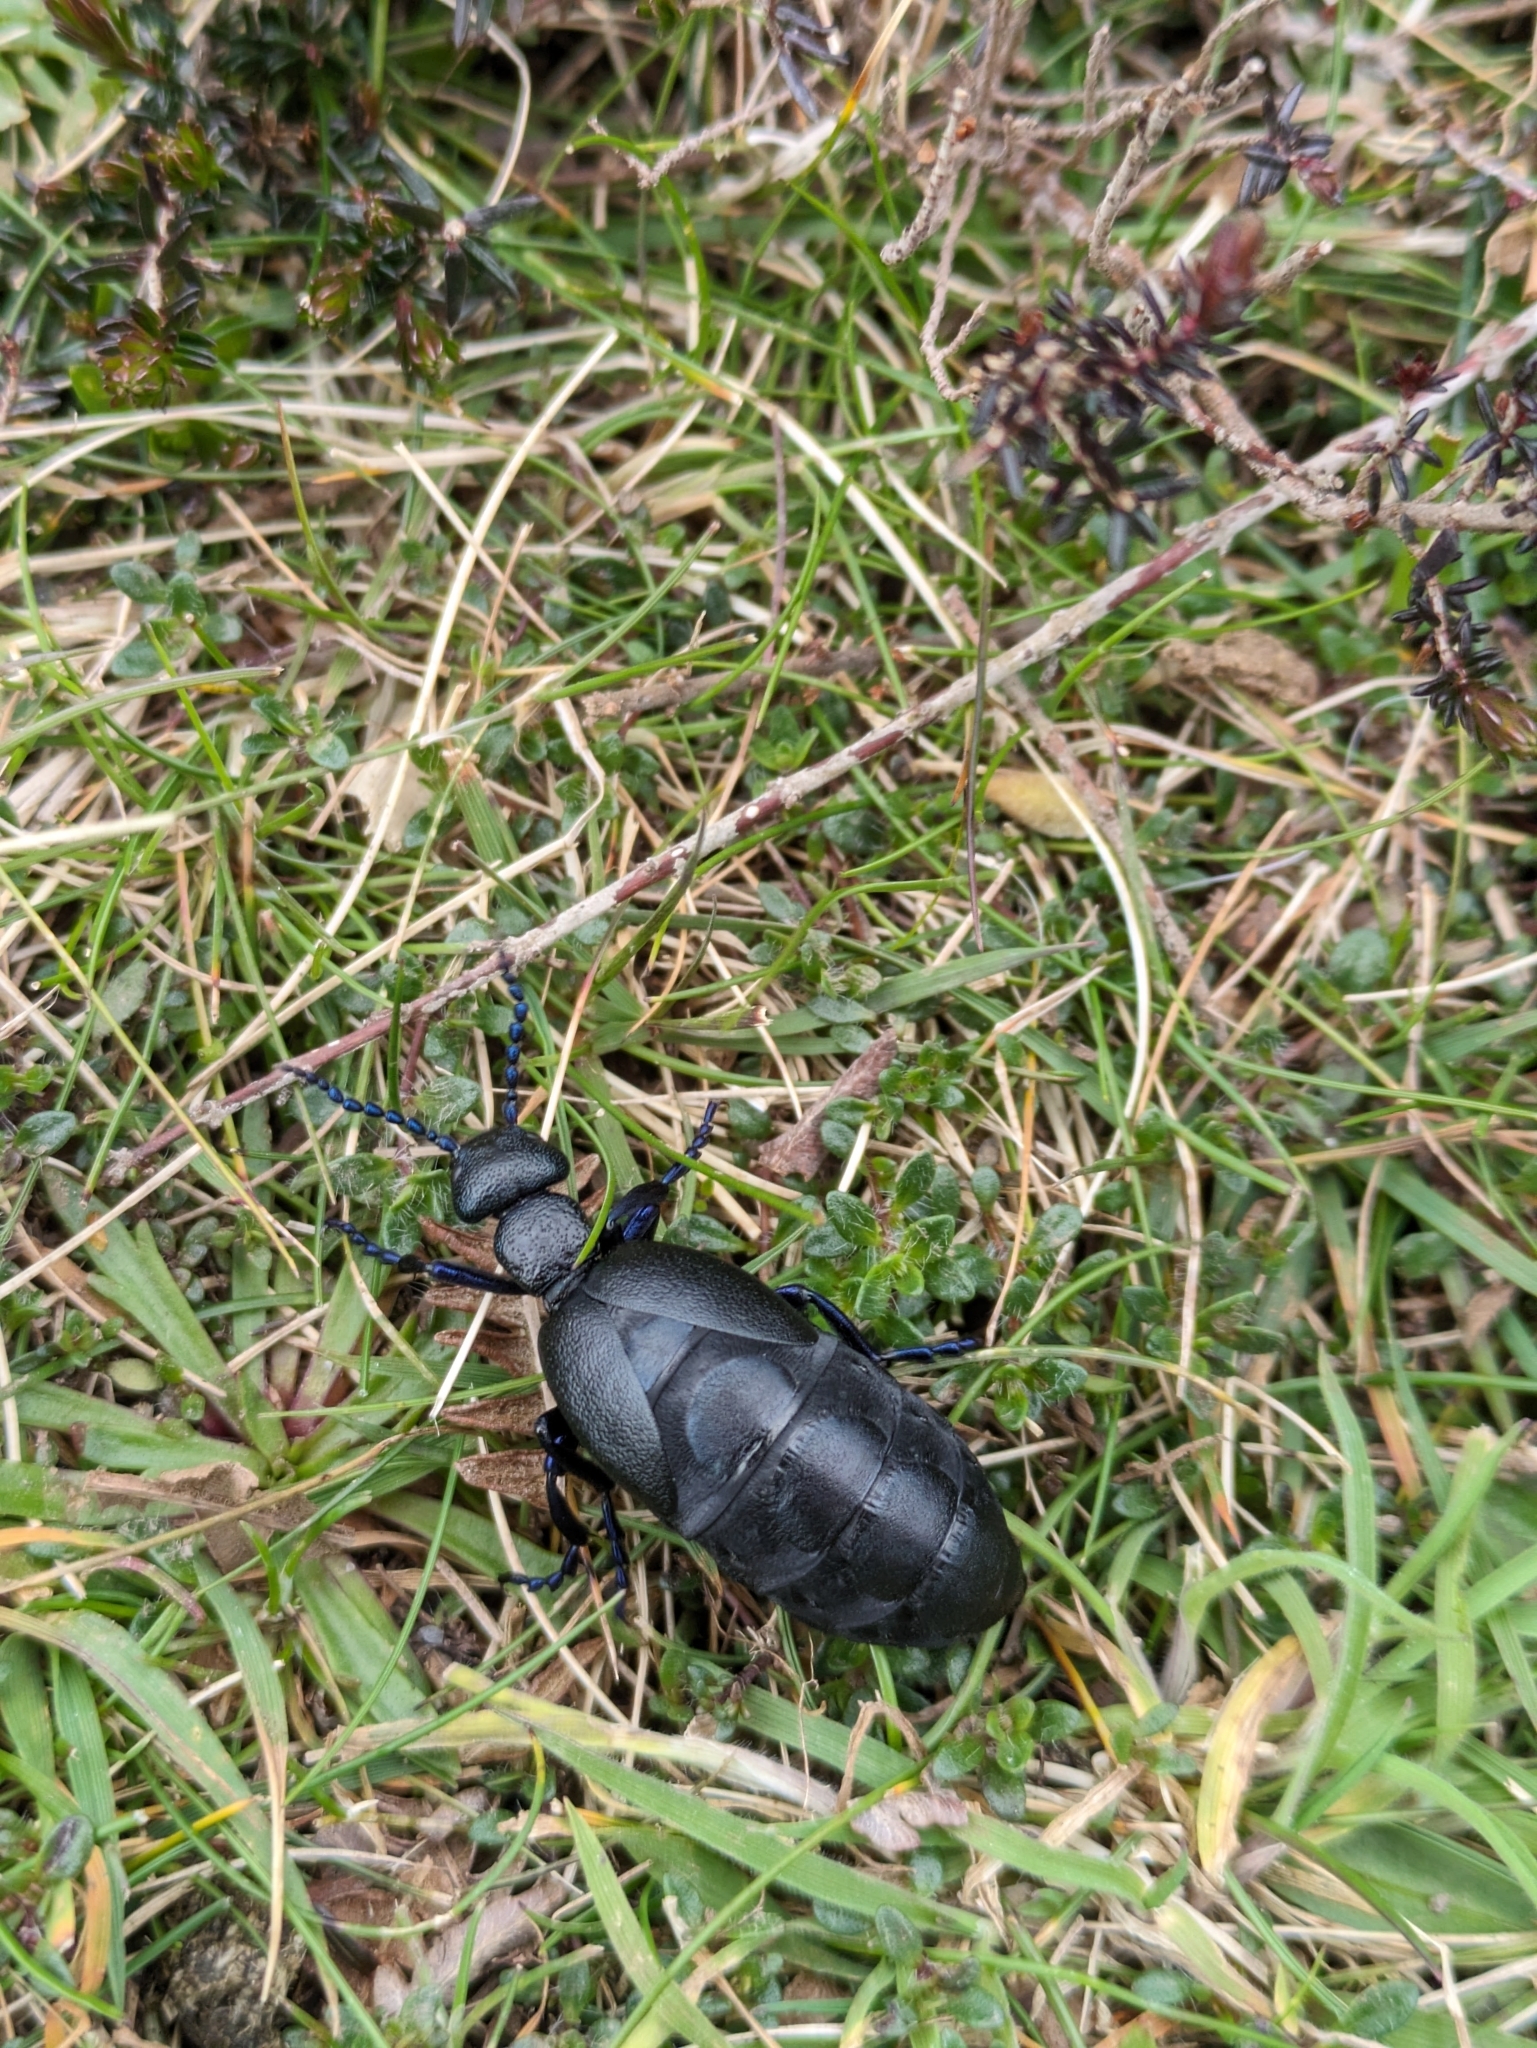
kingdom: Animalia
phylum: Arthropoda
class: Insecta
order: Coleoptera
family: Meloidae
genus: Meloe
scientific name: Meloe proscarabaeus
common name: Black oil-beetle
